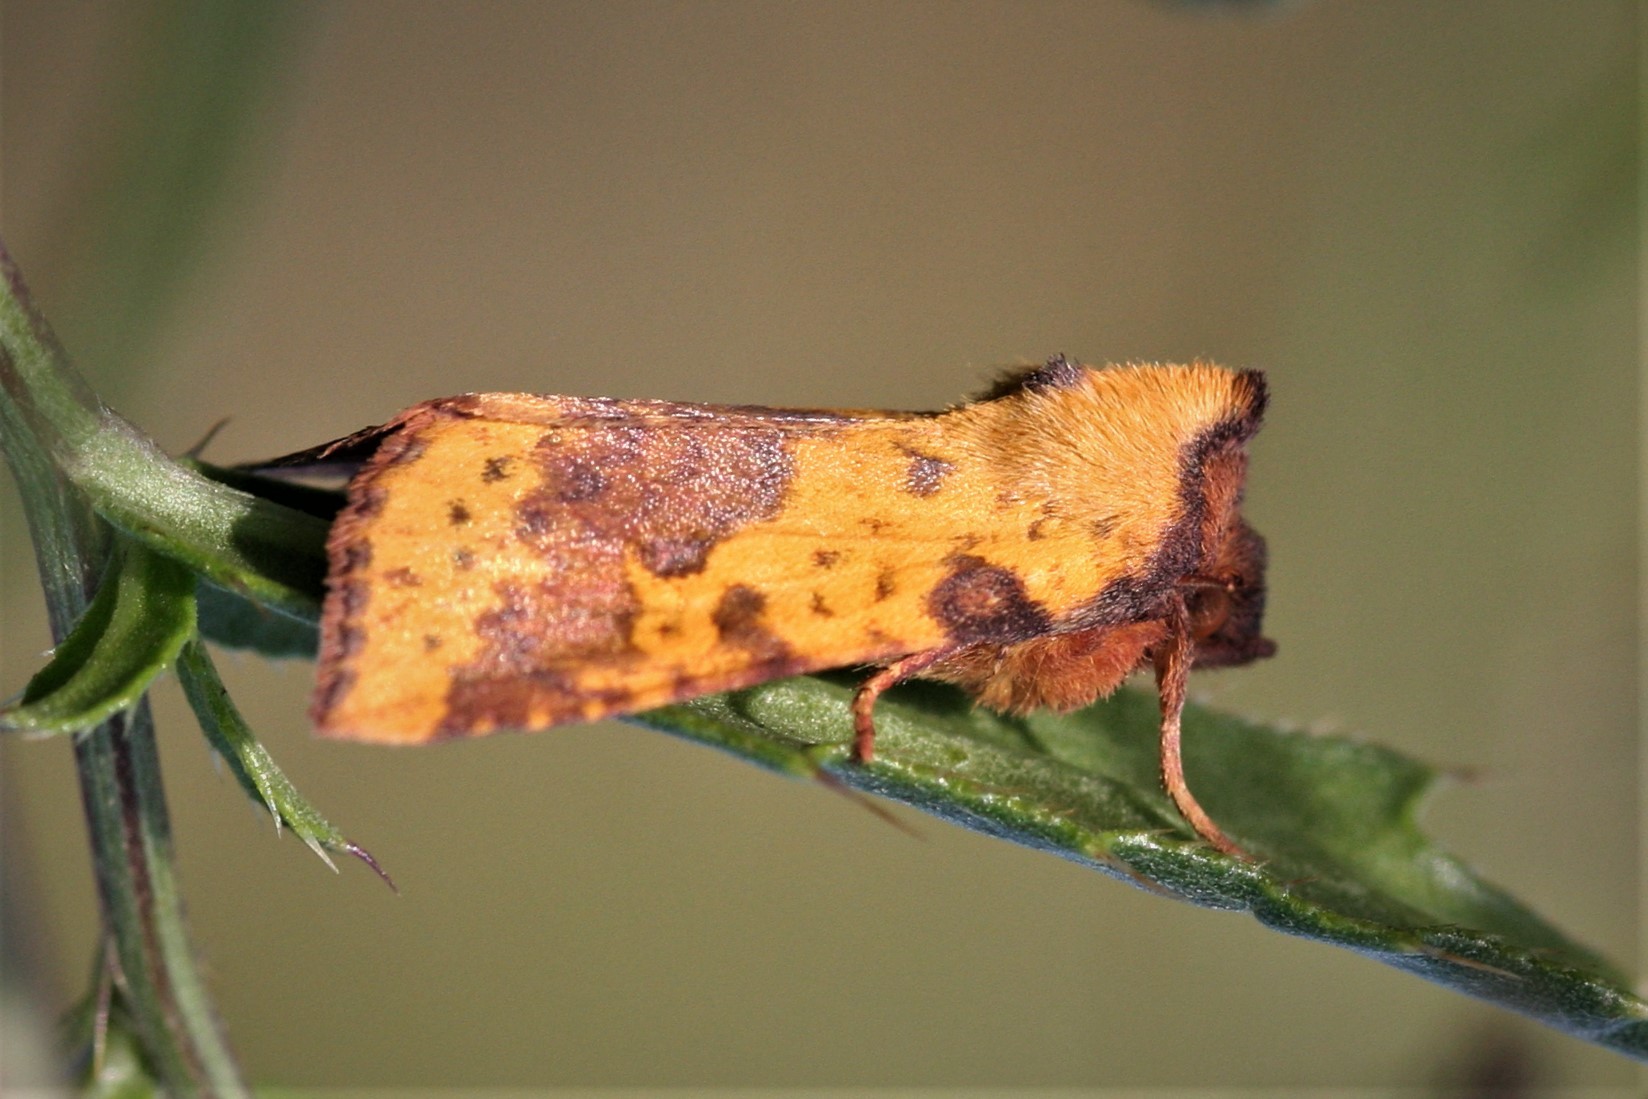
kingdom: Animalia
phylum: Arthropoda
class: Insecta
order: Lepidoptera
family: Noctuidae
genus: Xanthia
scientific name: Xanthia togata
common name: Pink-barred sallow
